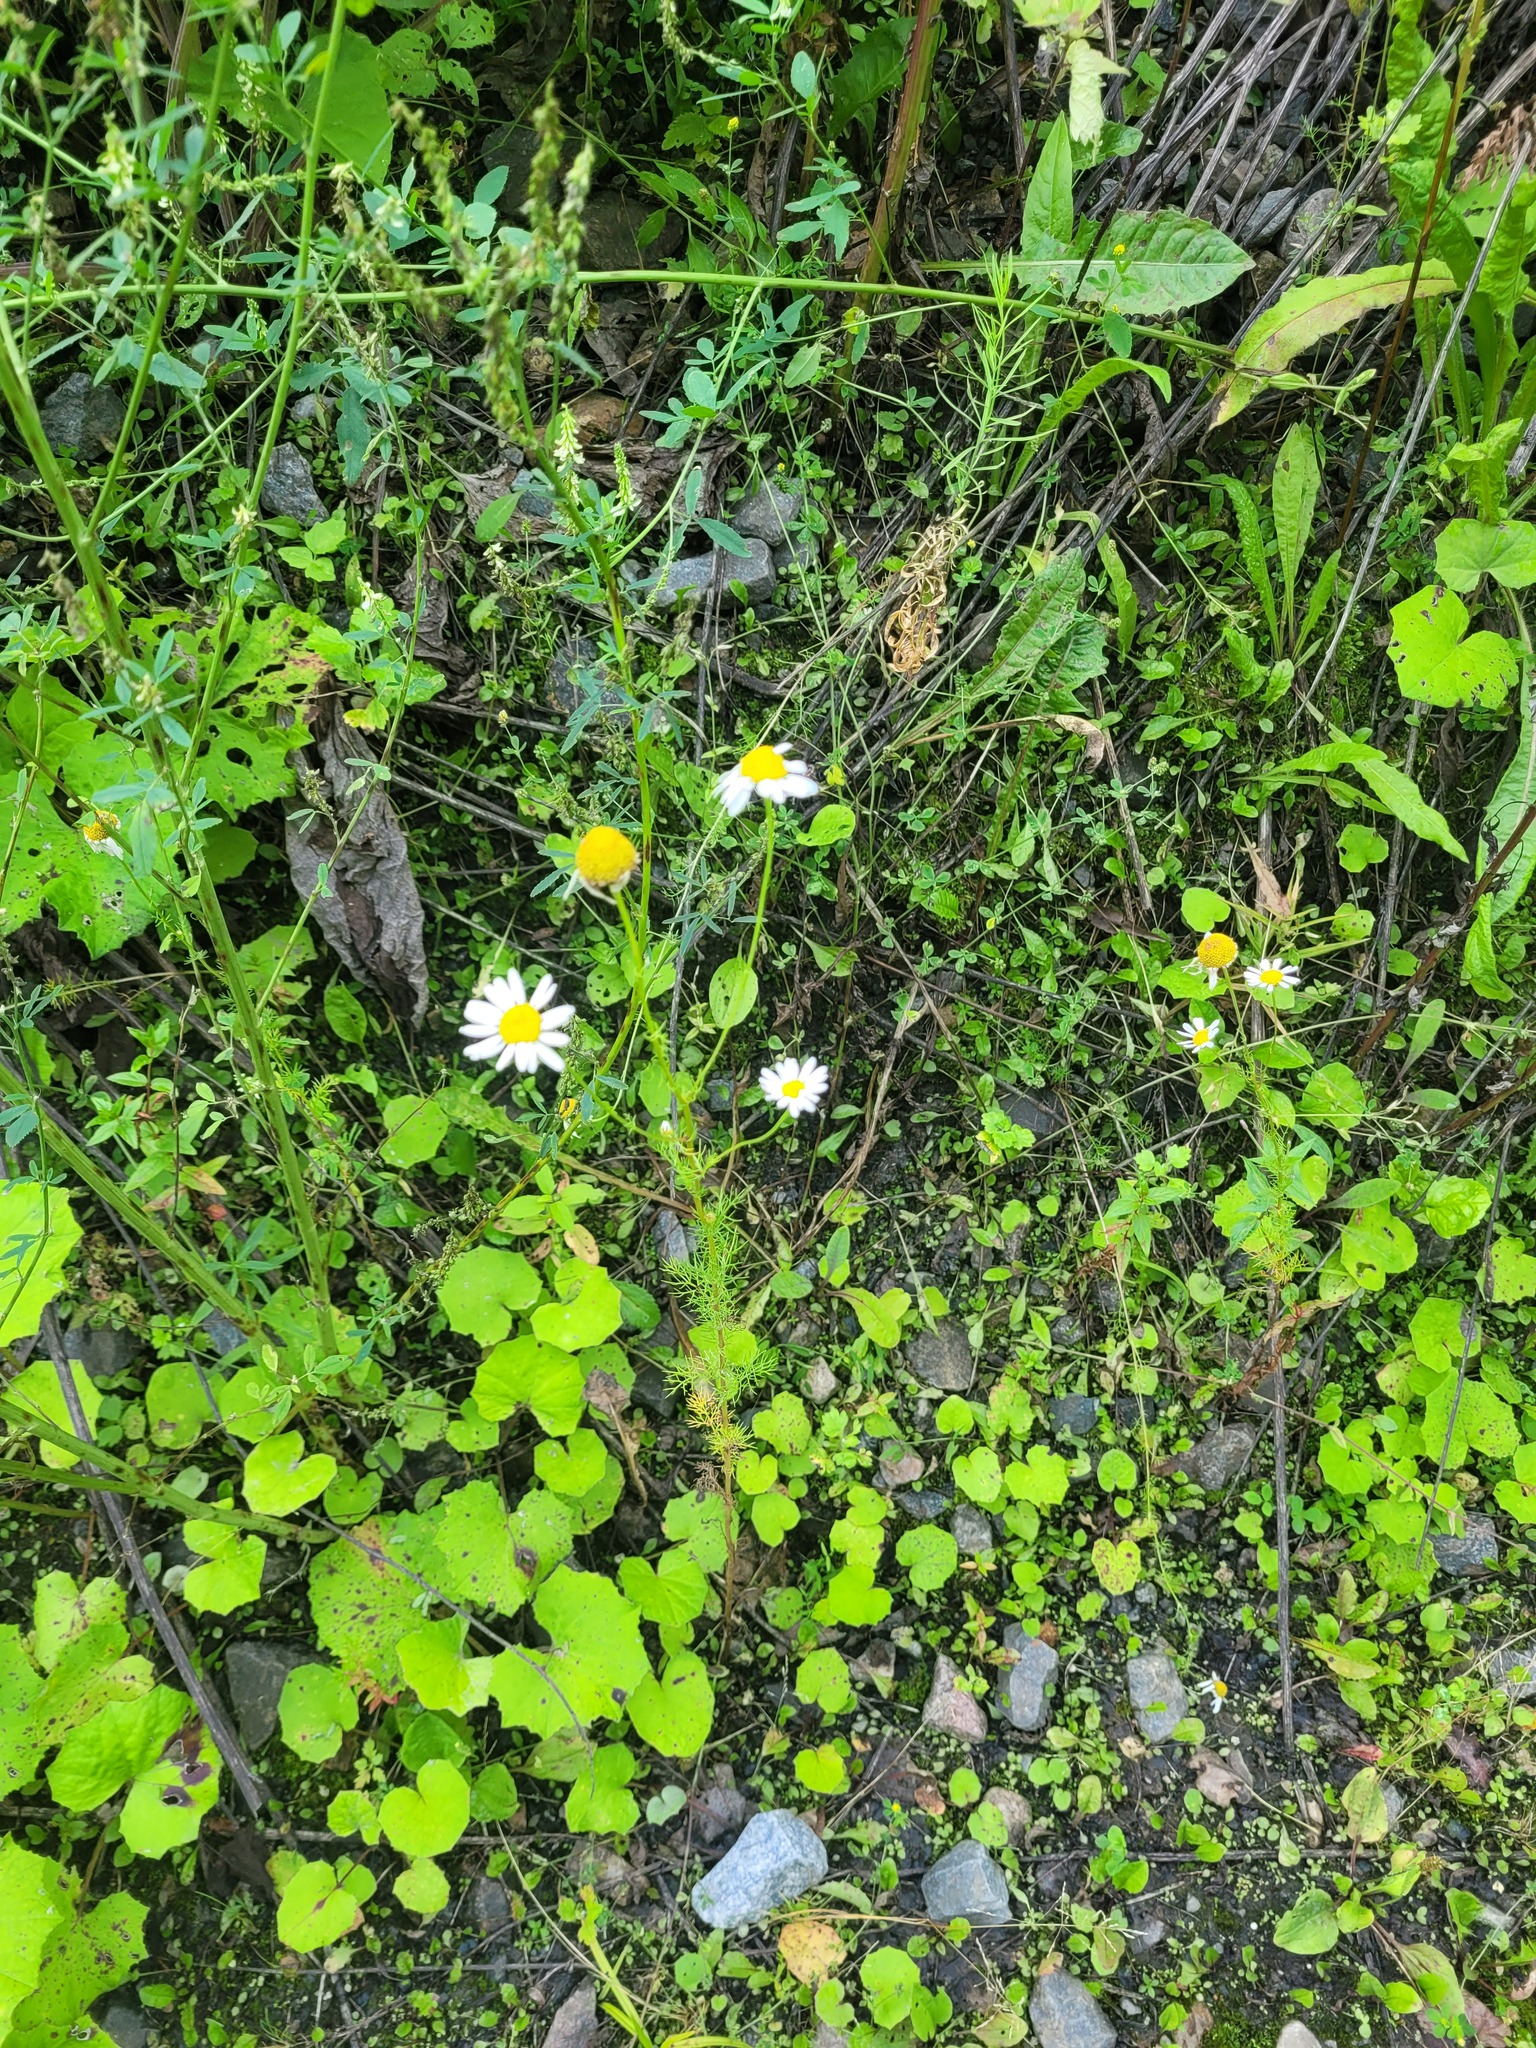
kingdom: Plantae
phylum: Tracheophyta
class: Magnoliopsida
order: Asterales
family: Asteraceae
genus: Tripleurospermum
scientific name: Tripleurospermum inodorum
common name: Scentless mayweed
